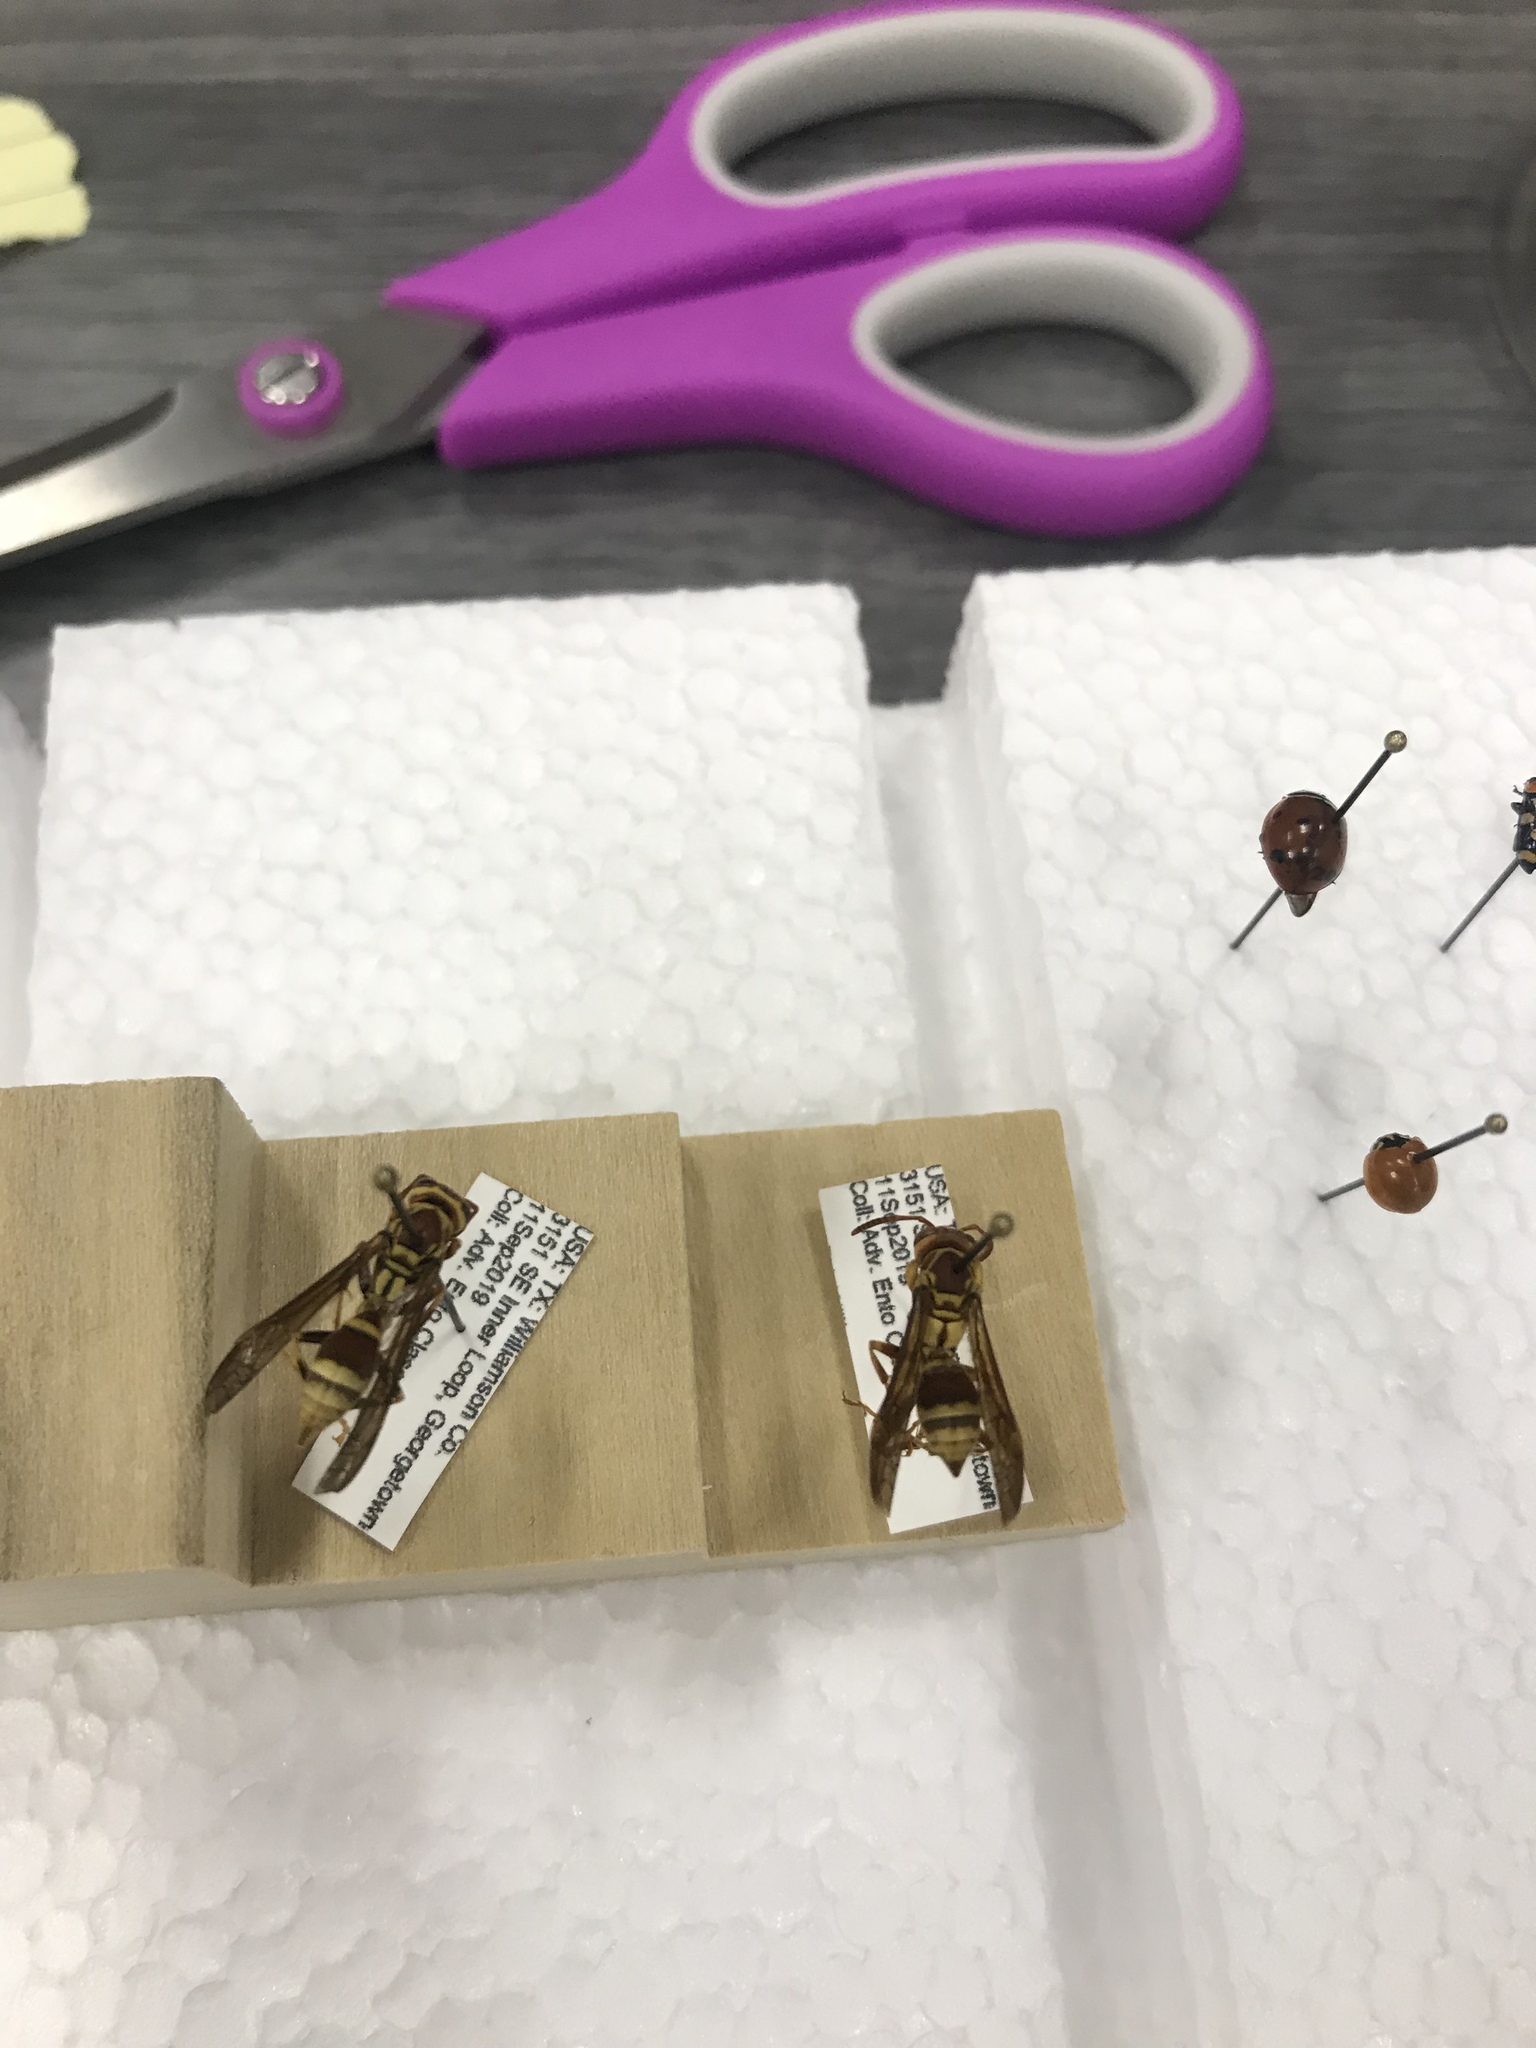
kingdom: Animalia
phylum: Arthropoda
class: Insecta
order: Hymenoptera
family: Eumenidae
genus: Polistes
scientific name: Polistes
